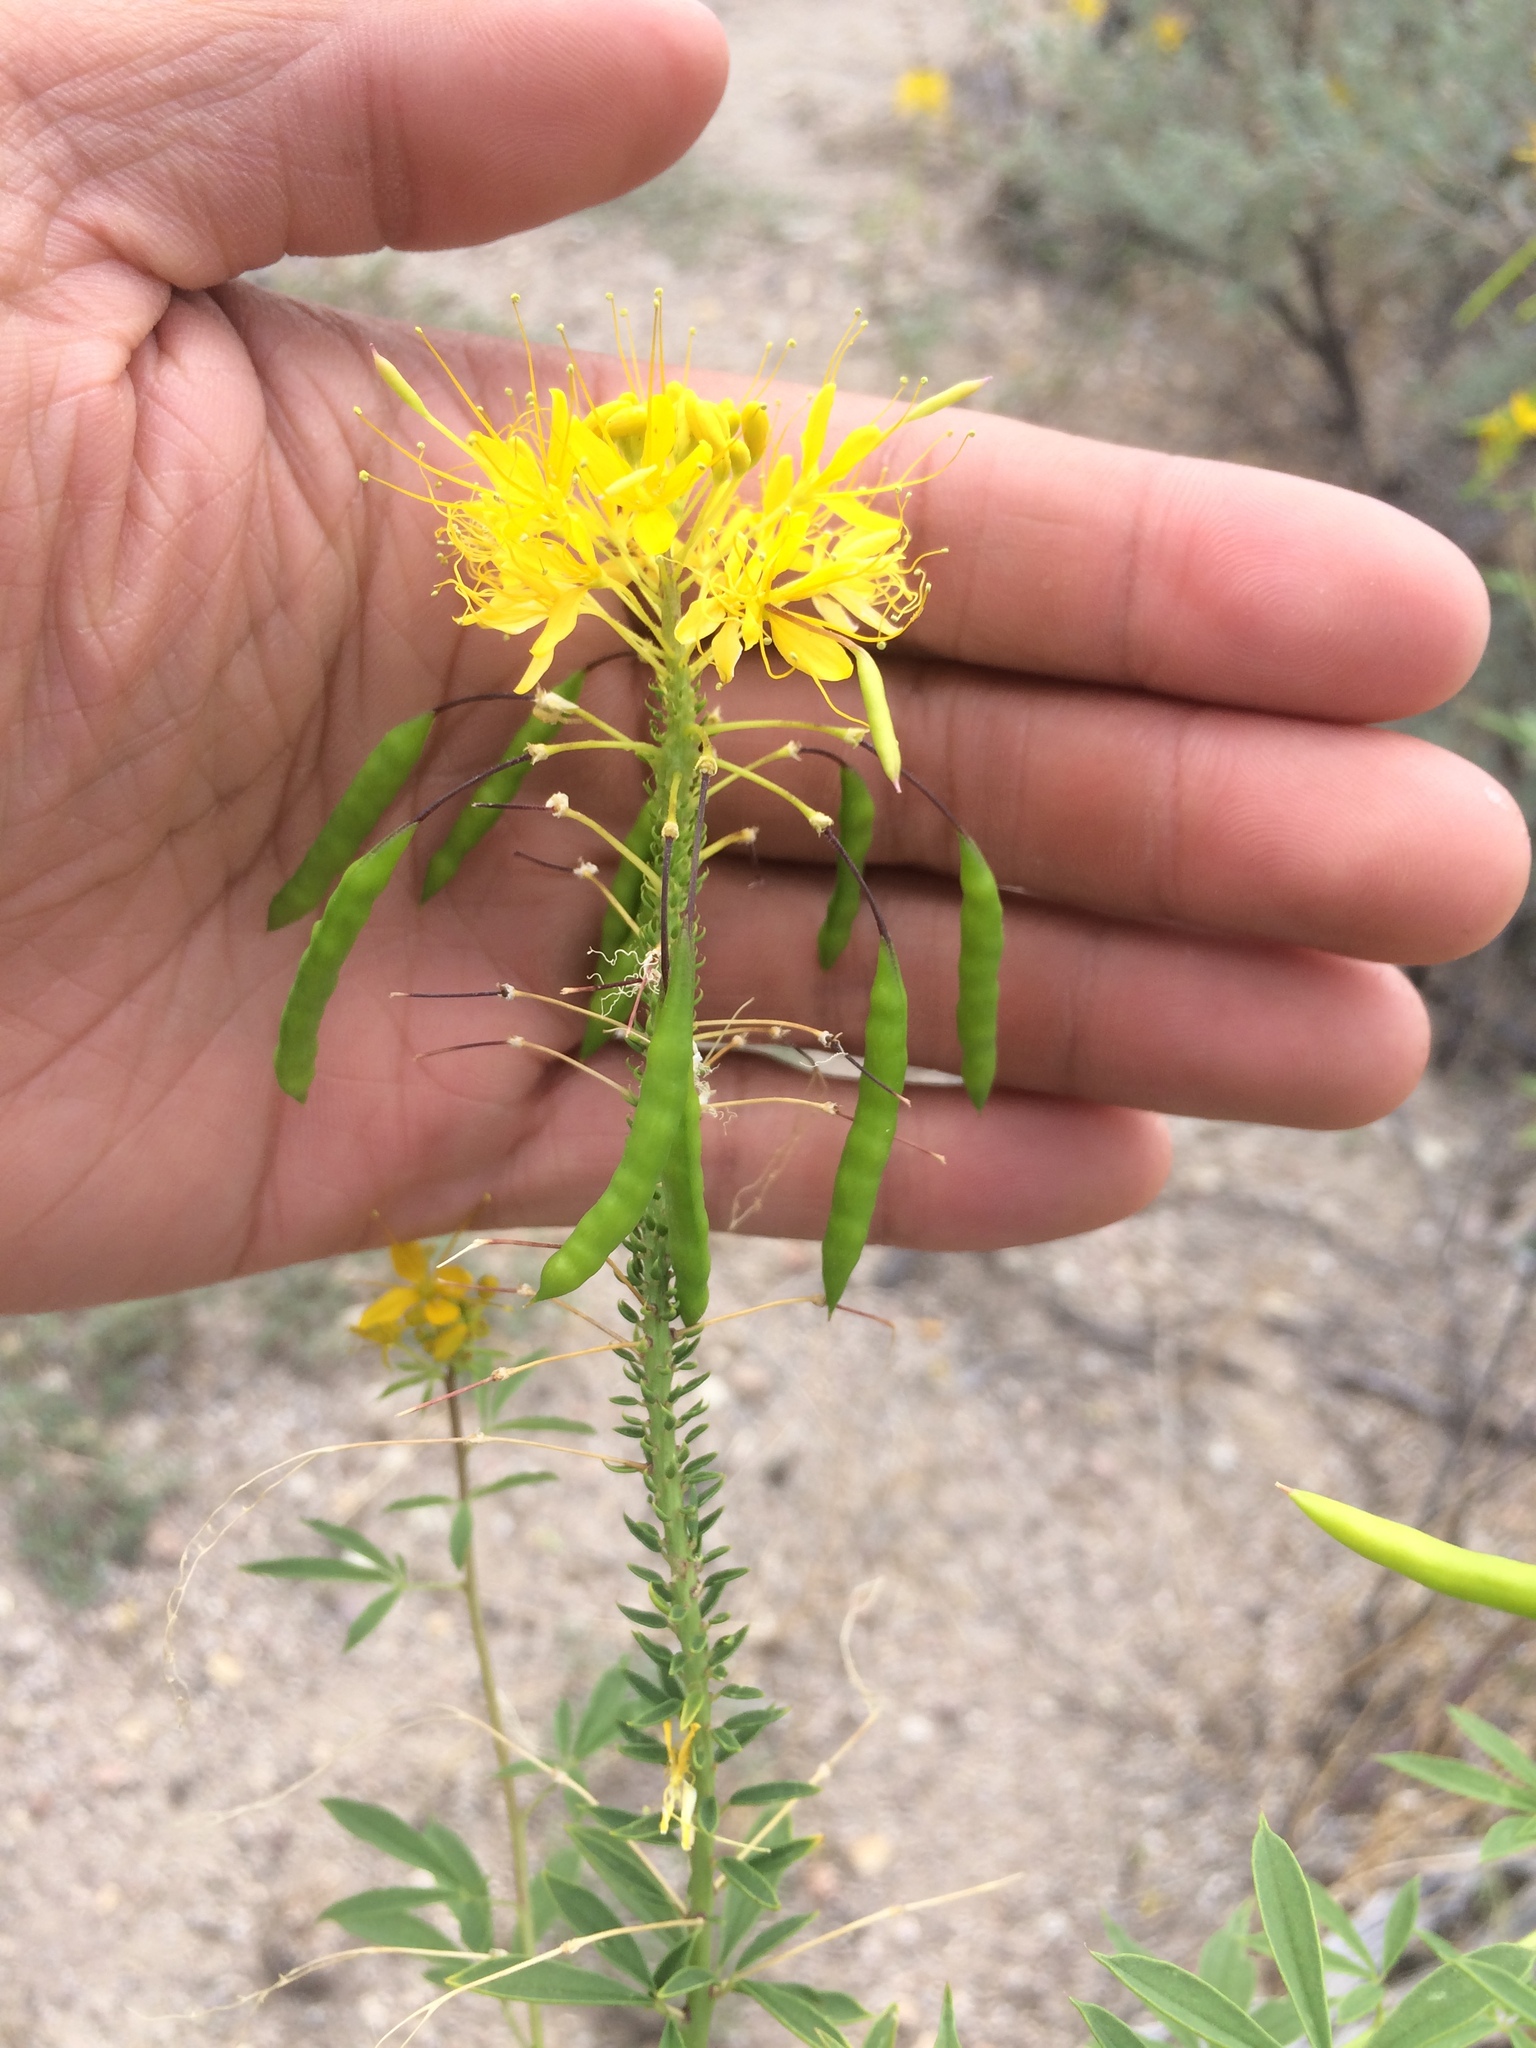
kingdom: Plantae
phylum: Tracheophyta
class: Magnoliopsida
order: Brassicales
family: Cleomaceae
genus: Cleomella
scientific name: Cleomella lutea
